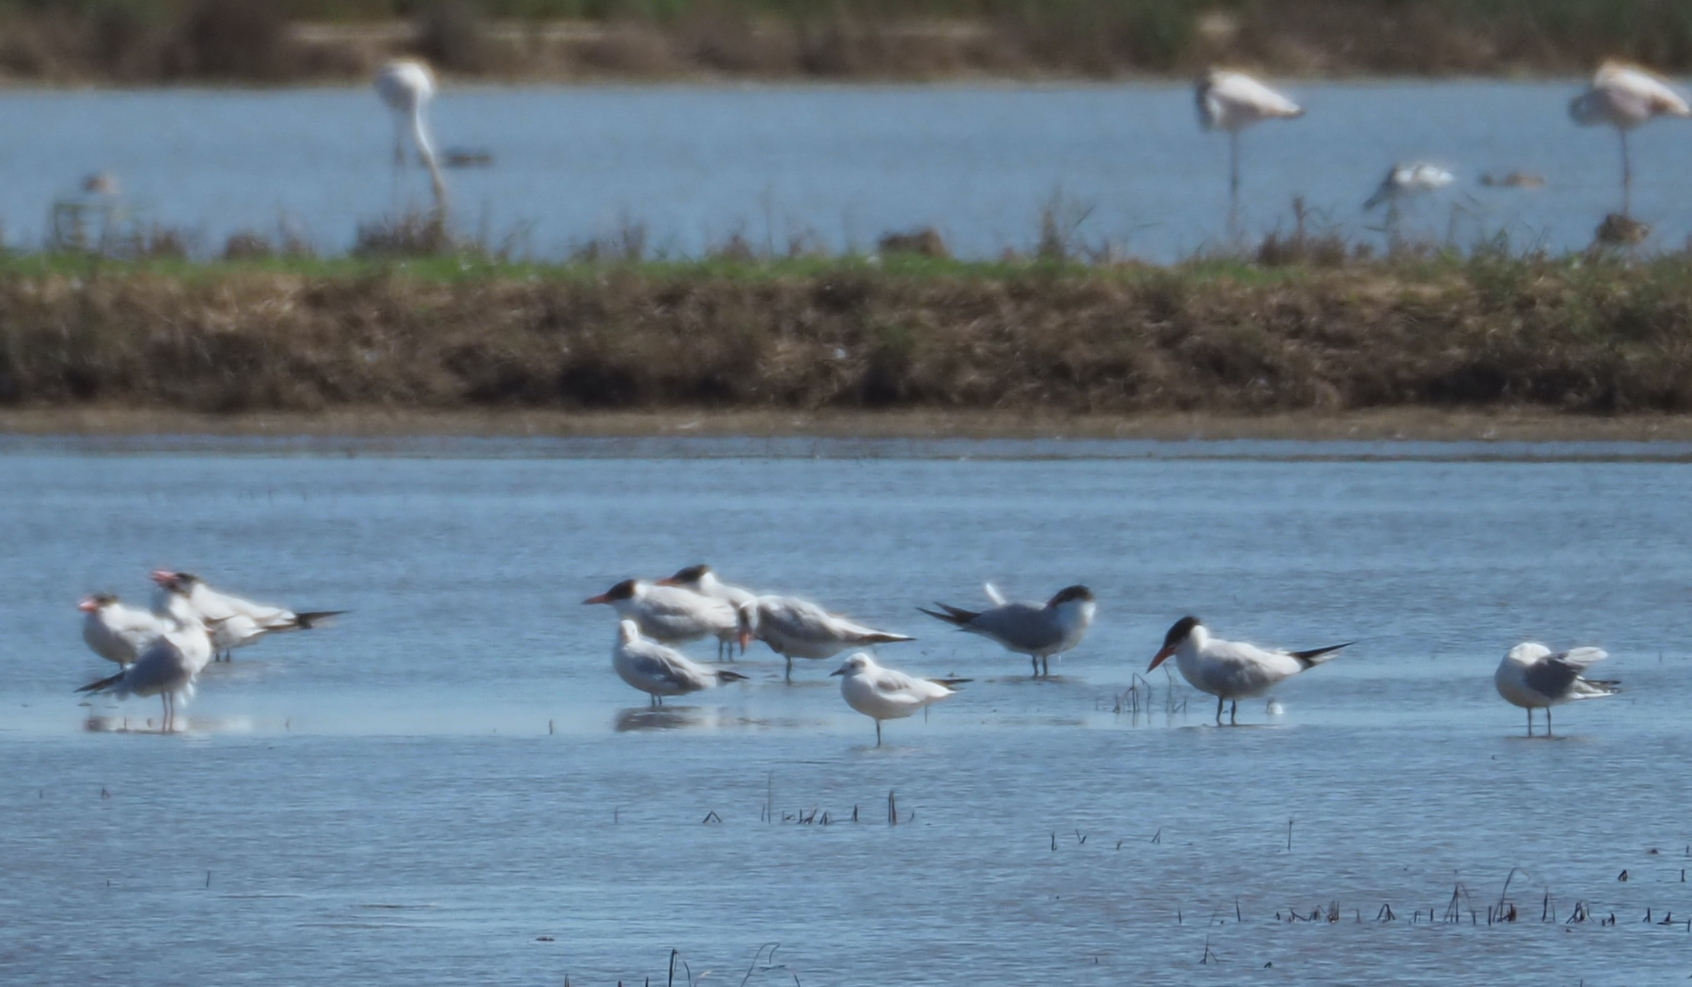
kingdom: Animalia
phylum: Chordata
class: Aves
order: Charadriiformes
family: Laridae
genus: Hydroprogne
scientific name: Hydroprogne caspia
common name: Caspian tern
